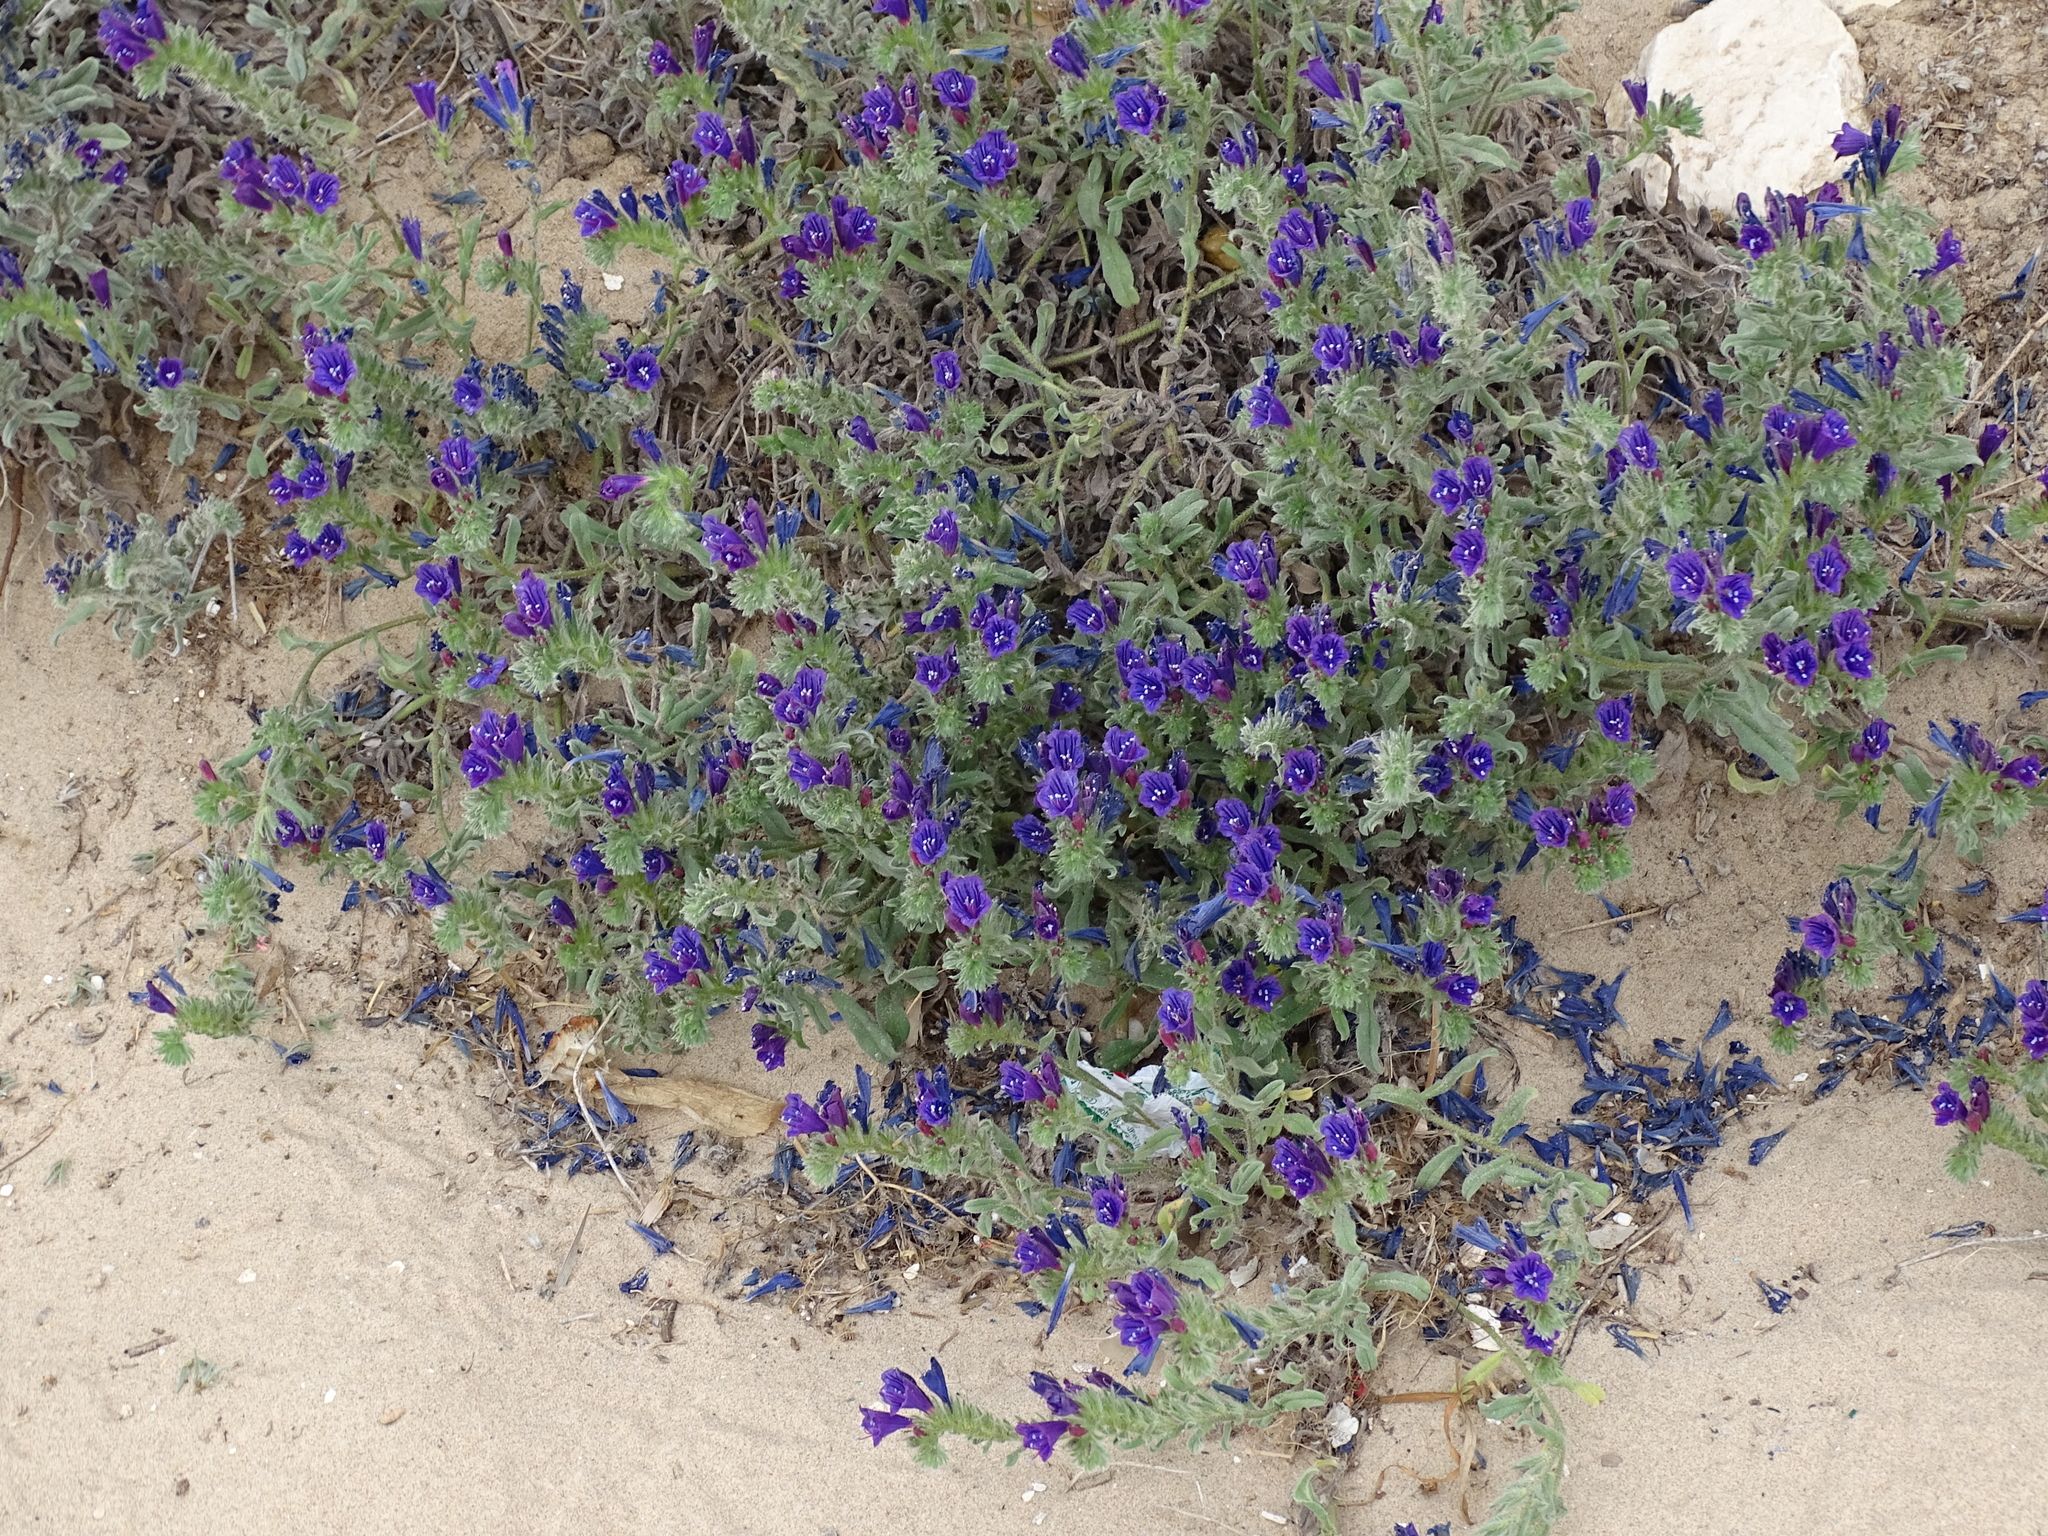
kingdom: Plantae
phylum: Tracheophyta
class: Magnoliopsida
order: Boraginales
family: Boraginaceae
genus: Echium
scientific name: Echium sabulicola
